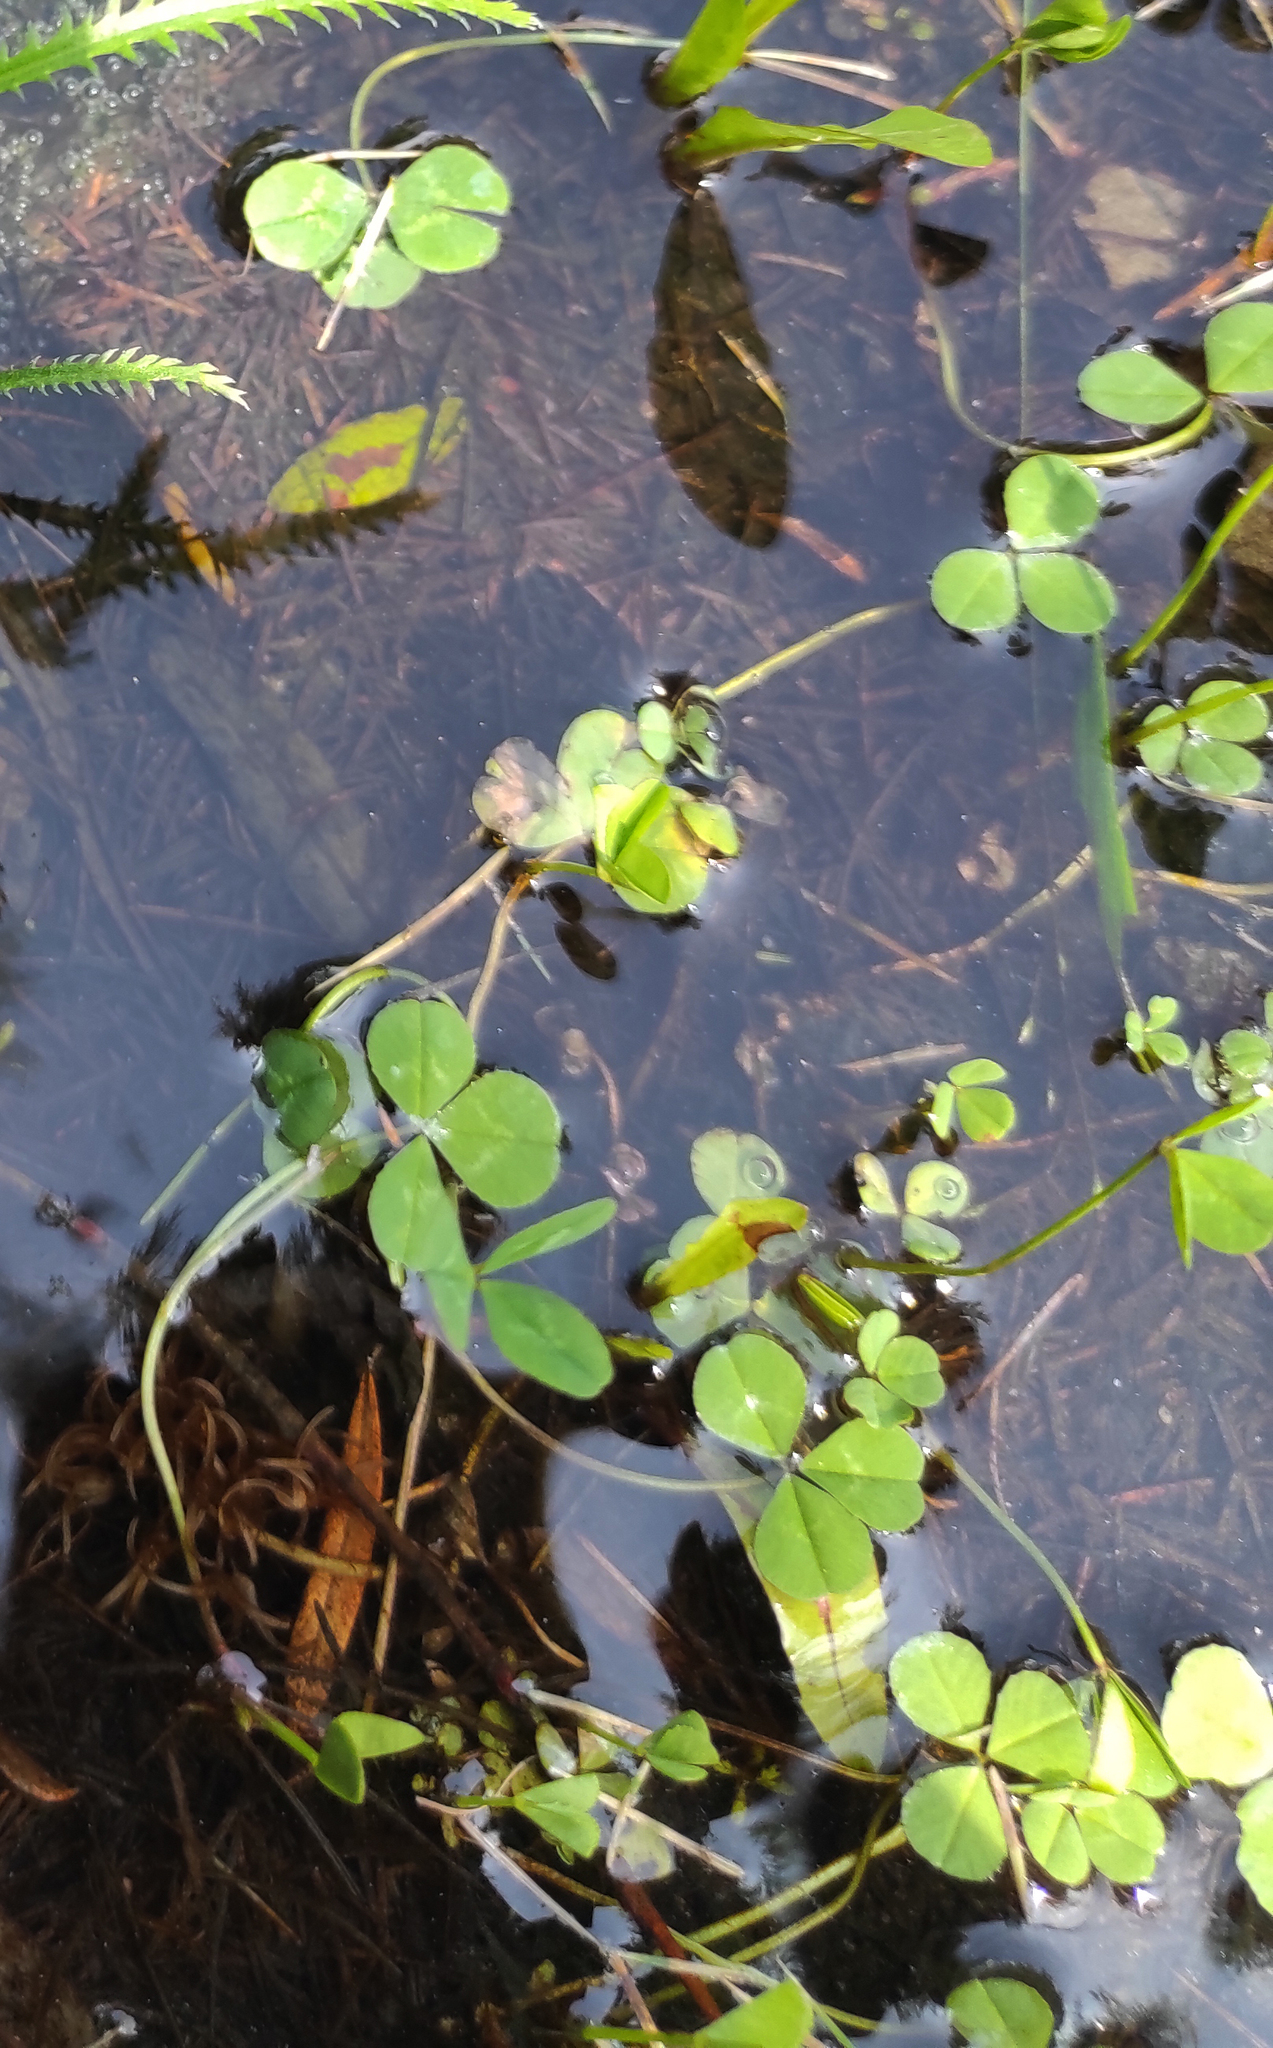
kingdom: Plantae
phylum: Tracheophyta
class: Magnoliopsida
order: Fabales
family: Fabaceae
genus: Trifolium
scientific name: Trifolium repens
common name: White clover
